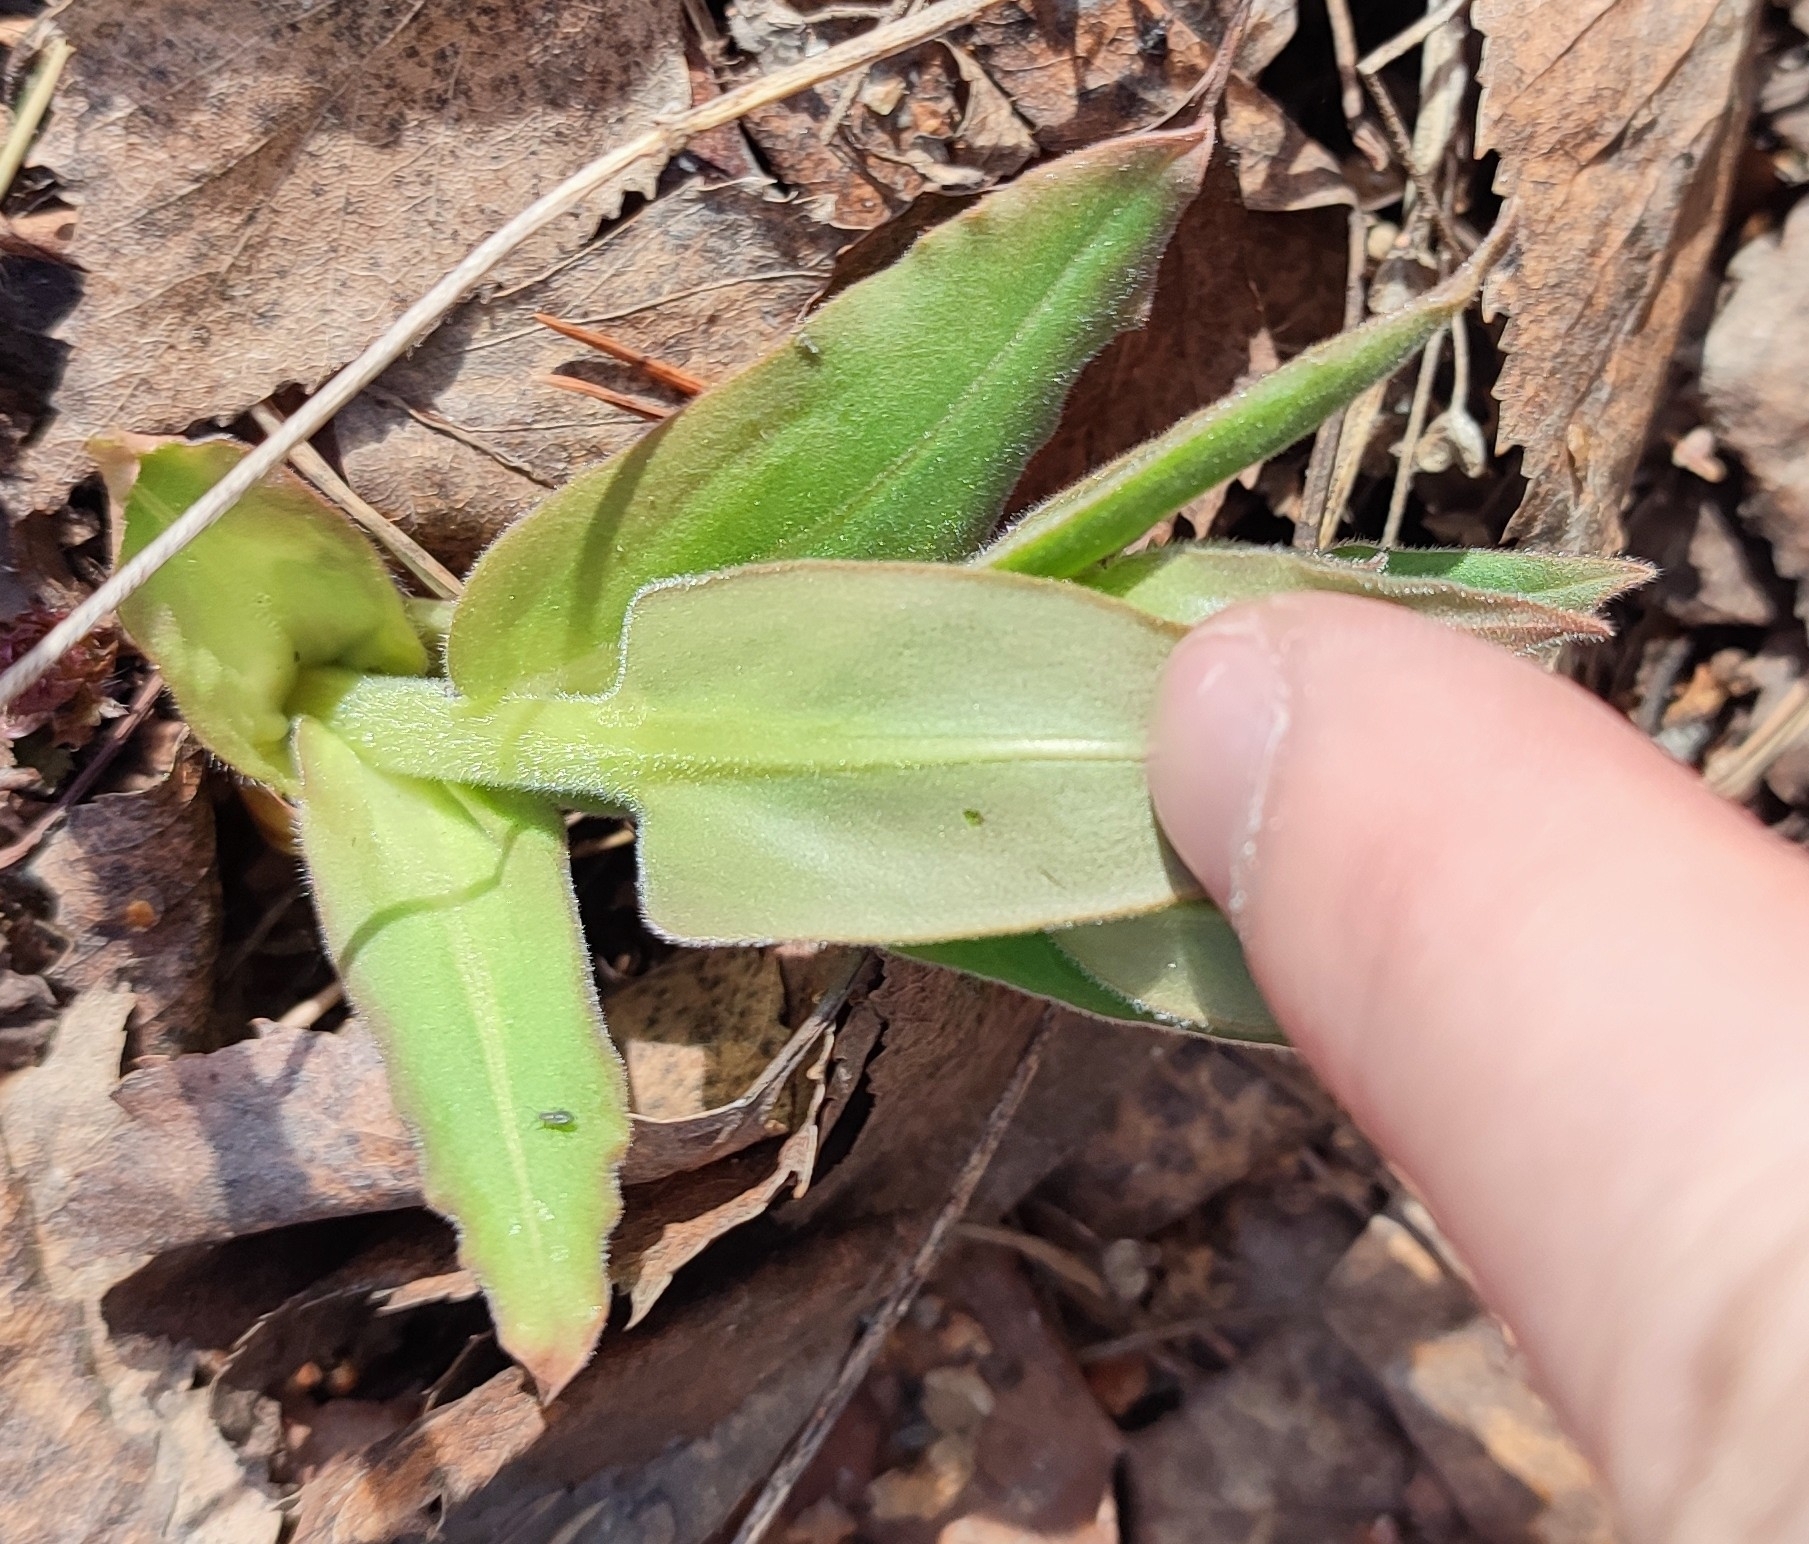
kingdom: Plantae
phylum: Tracheophyta
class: Magnoliopsida
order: Boraginales
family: Boraginaceae
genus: Pulmonaria
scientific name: Pulmonaria mollis
